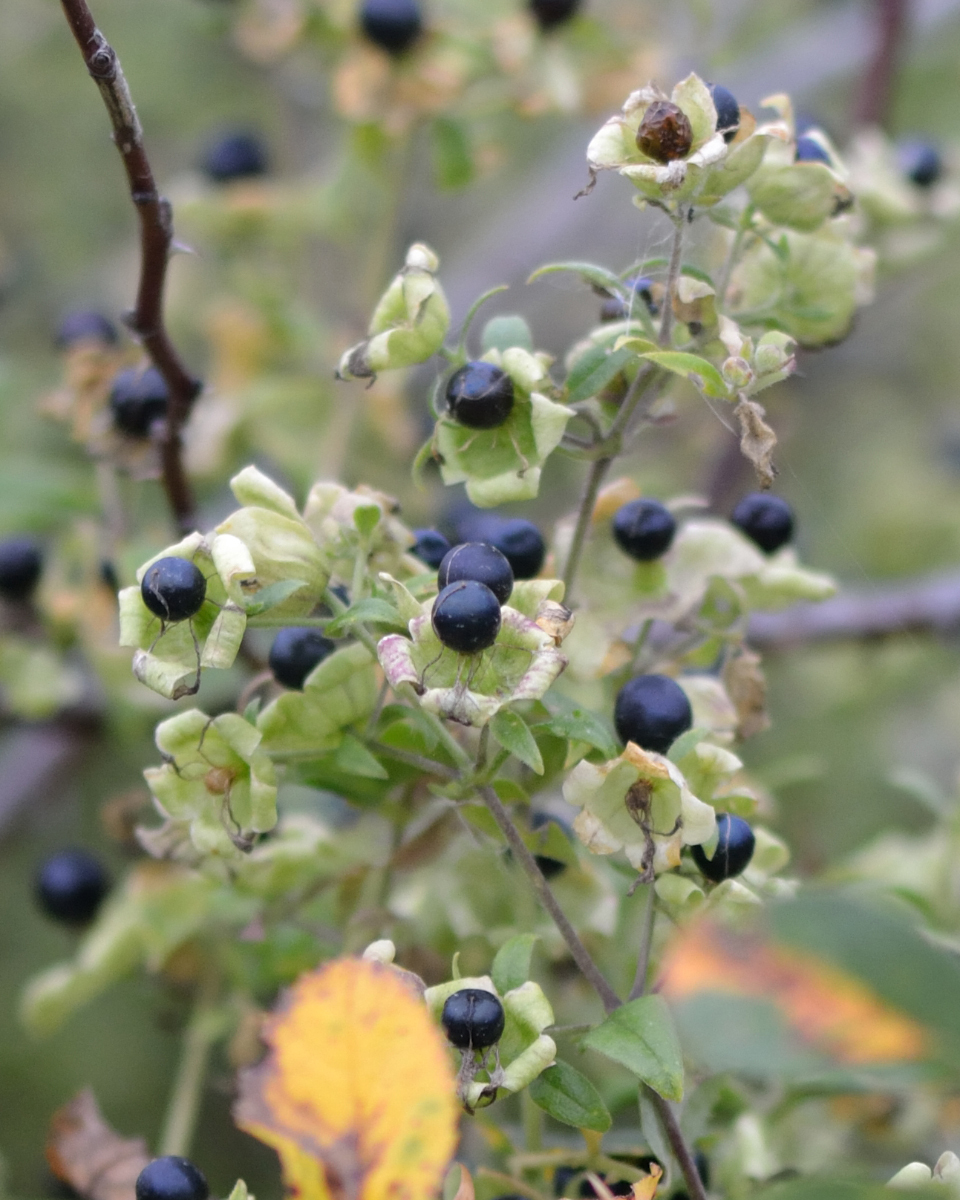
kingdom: Plantae
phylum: Tracheophyta
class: Magnoliopsida
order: Caryophyllales
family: Caryophyllaceae
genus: Silene
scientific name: Silene baccifera
